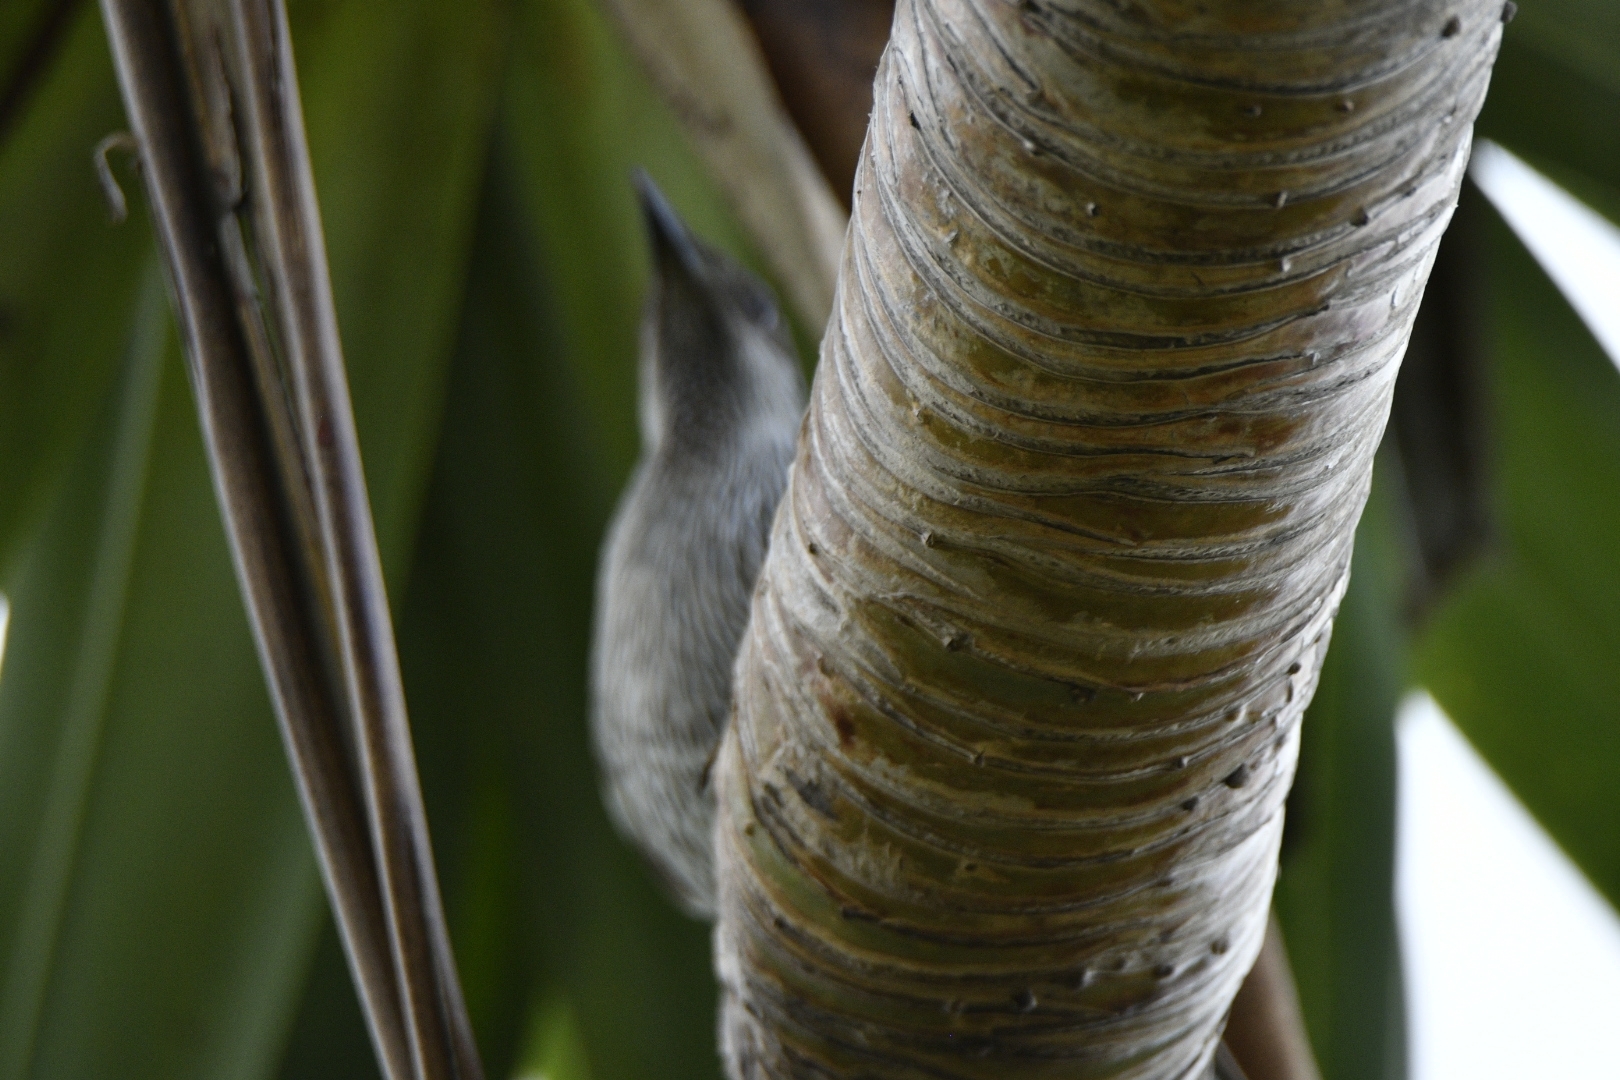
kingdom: Animalia
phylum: Chordata
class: Aves
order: Passeriformes
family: Meliphagidae
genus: Anthochaera
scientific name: Anthochaera chrysoptera
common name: Little wattlebird
